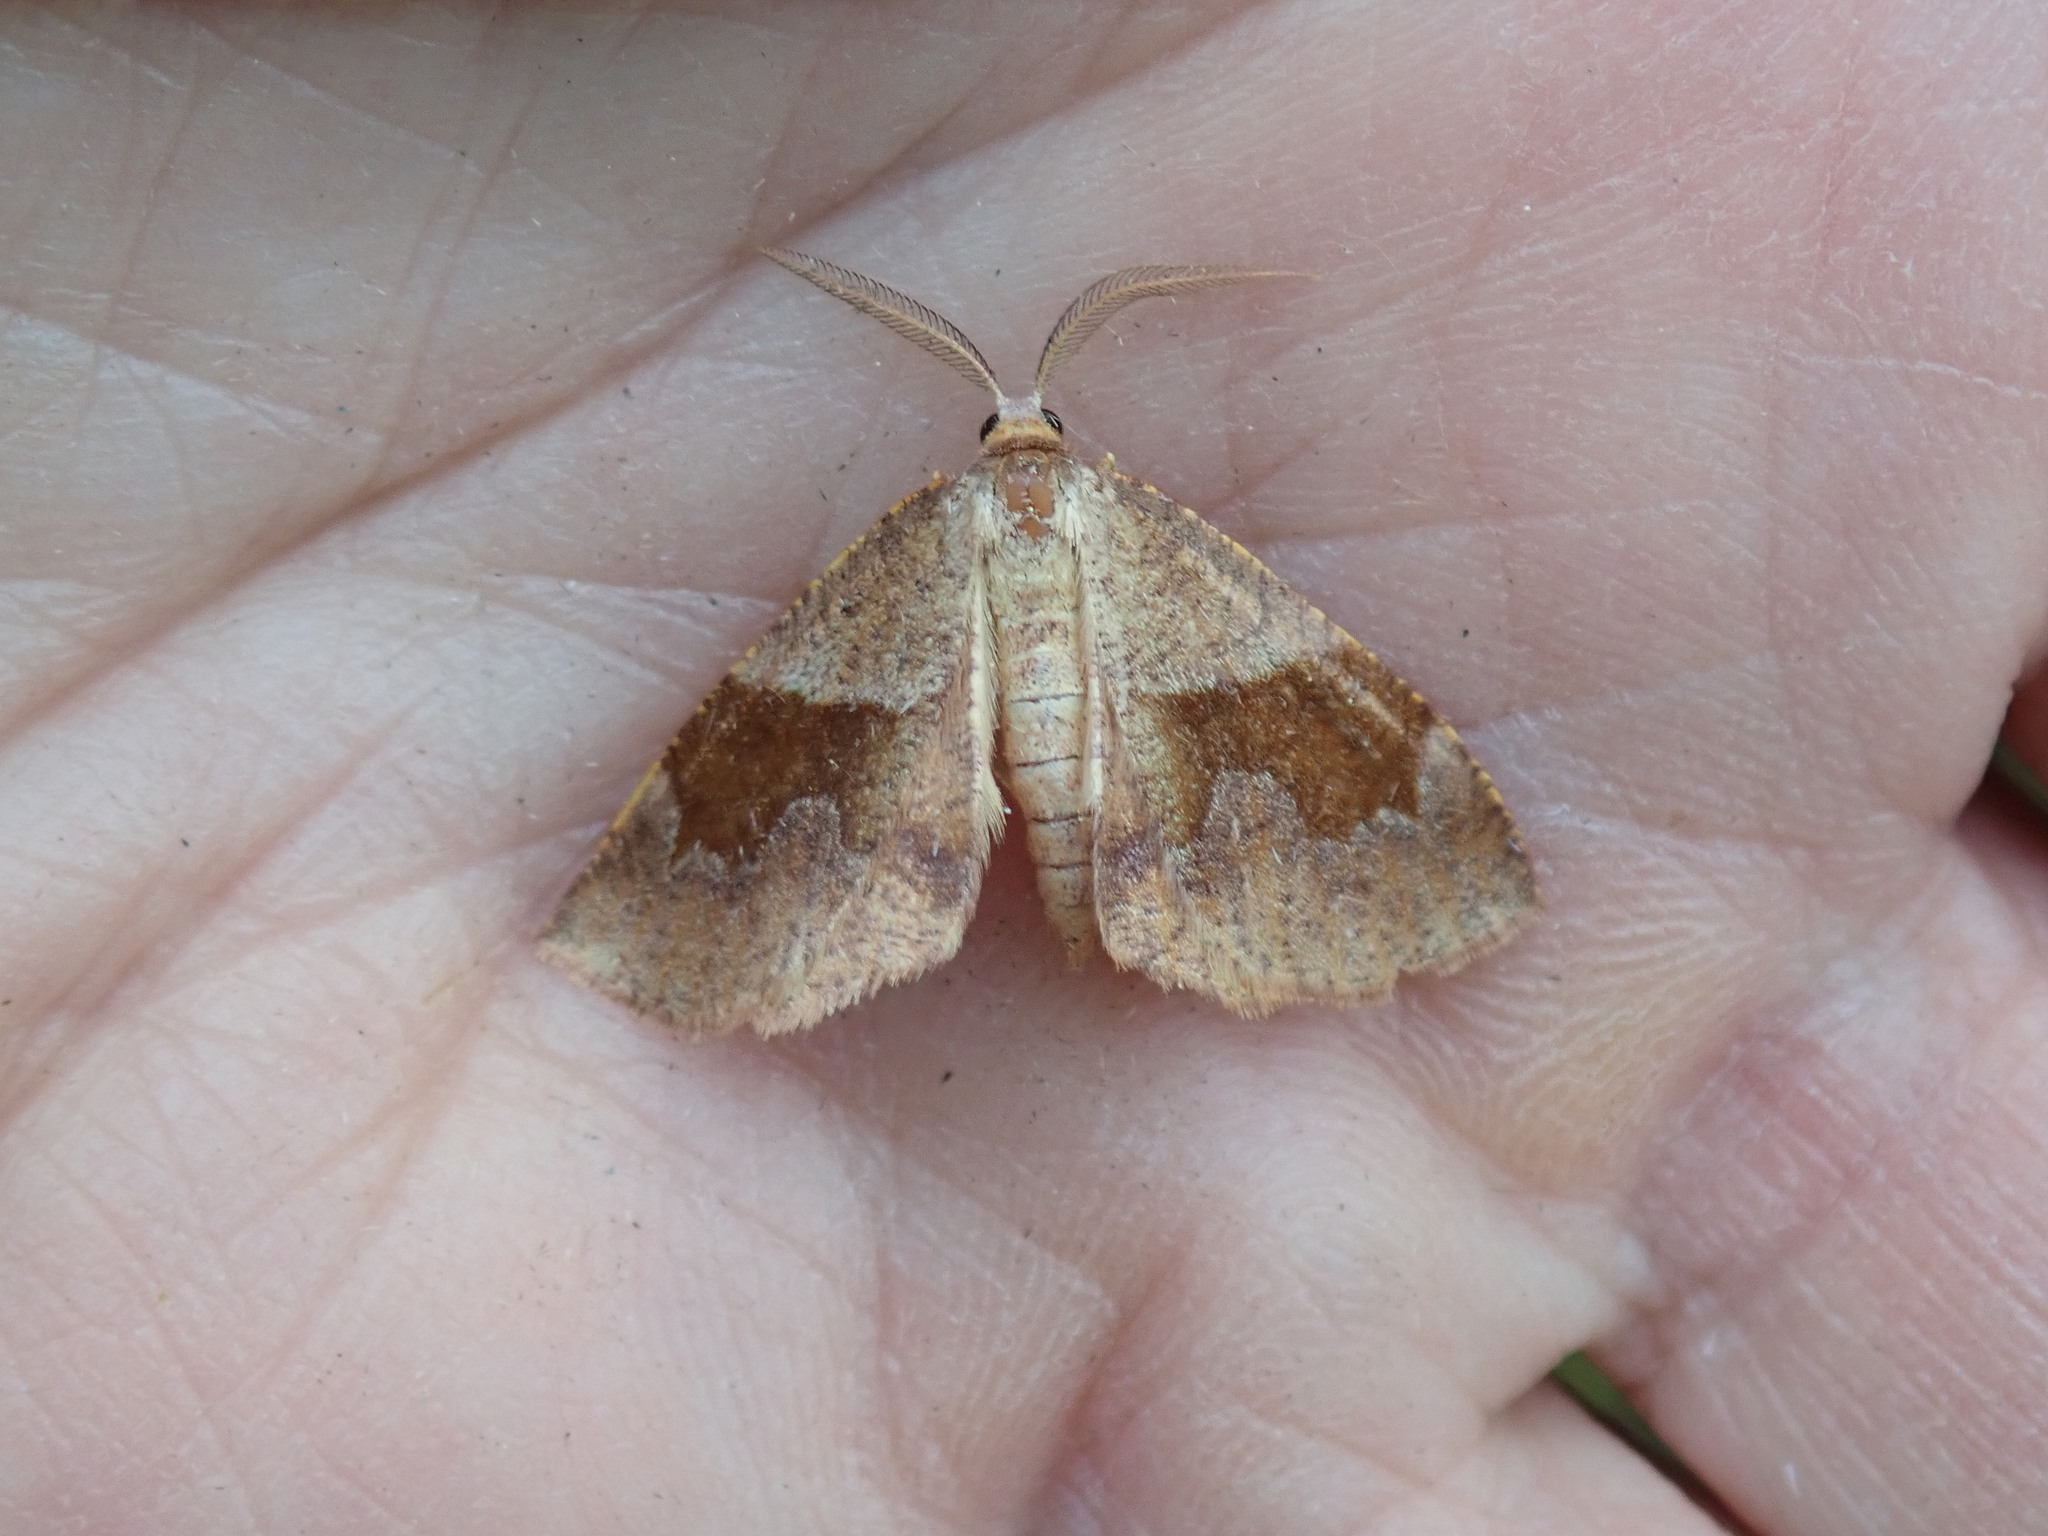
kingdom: Animalia
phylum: Arthropoda
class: Insecta
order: Lepidoptera
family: Geometridae
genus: Plagodis
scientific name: Plagodis pulveraria
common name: Barred umber
